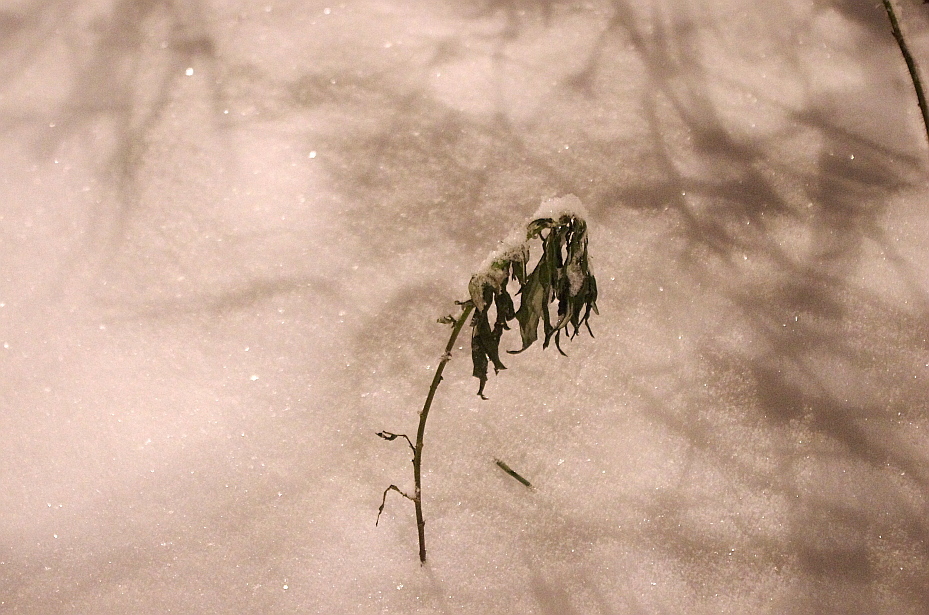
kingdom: Plantae
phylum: Tracheophyta
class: Magnoliopsida
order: Asterales
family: Asteraceae
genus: Artemisia
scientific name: Artemisia vulgaris
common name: Mugwort
